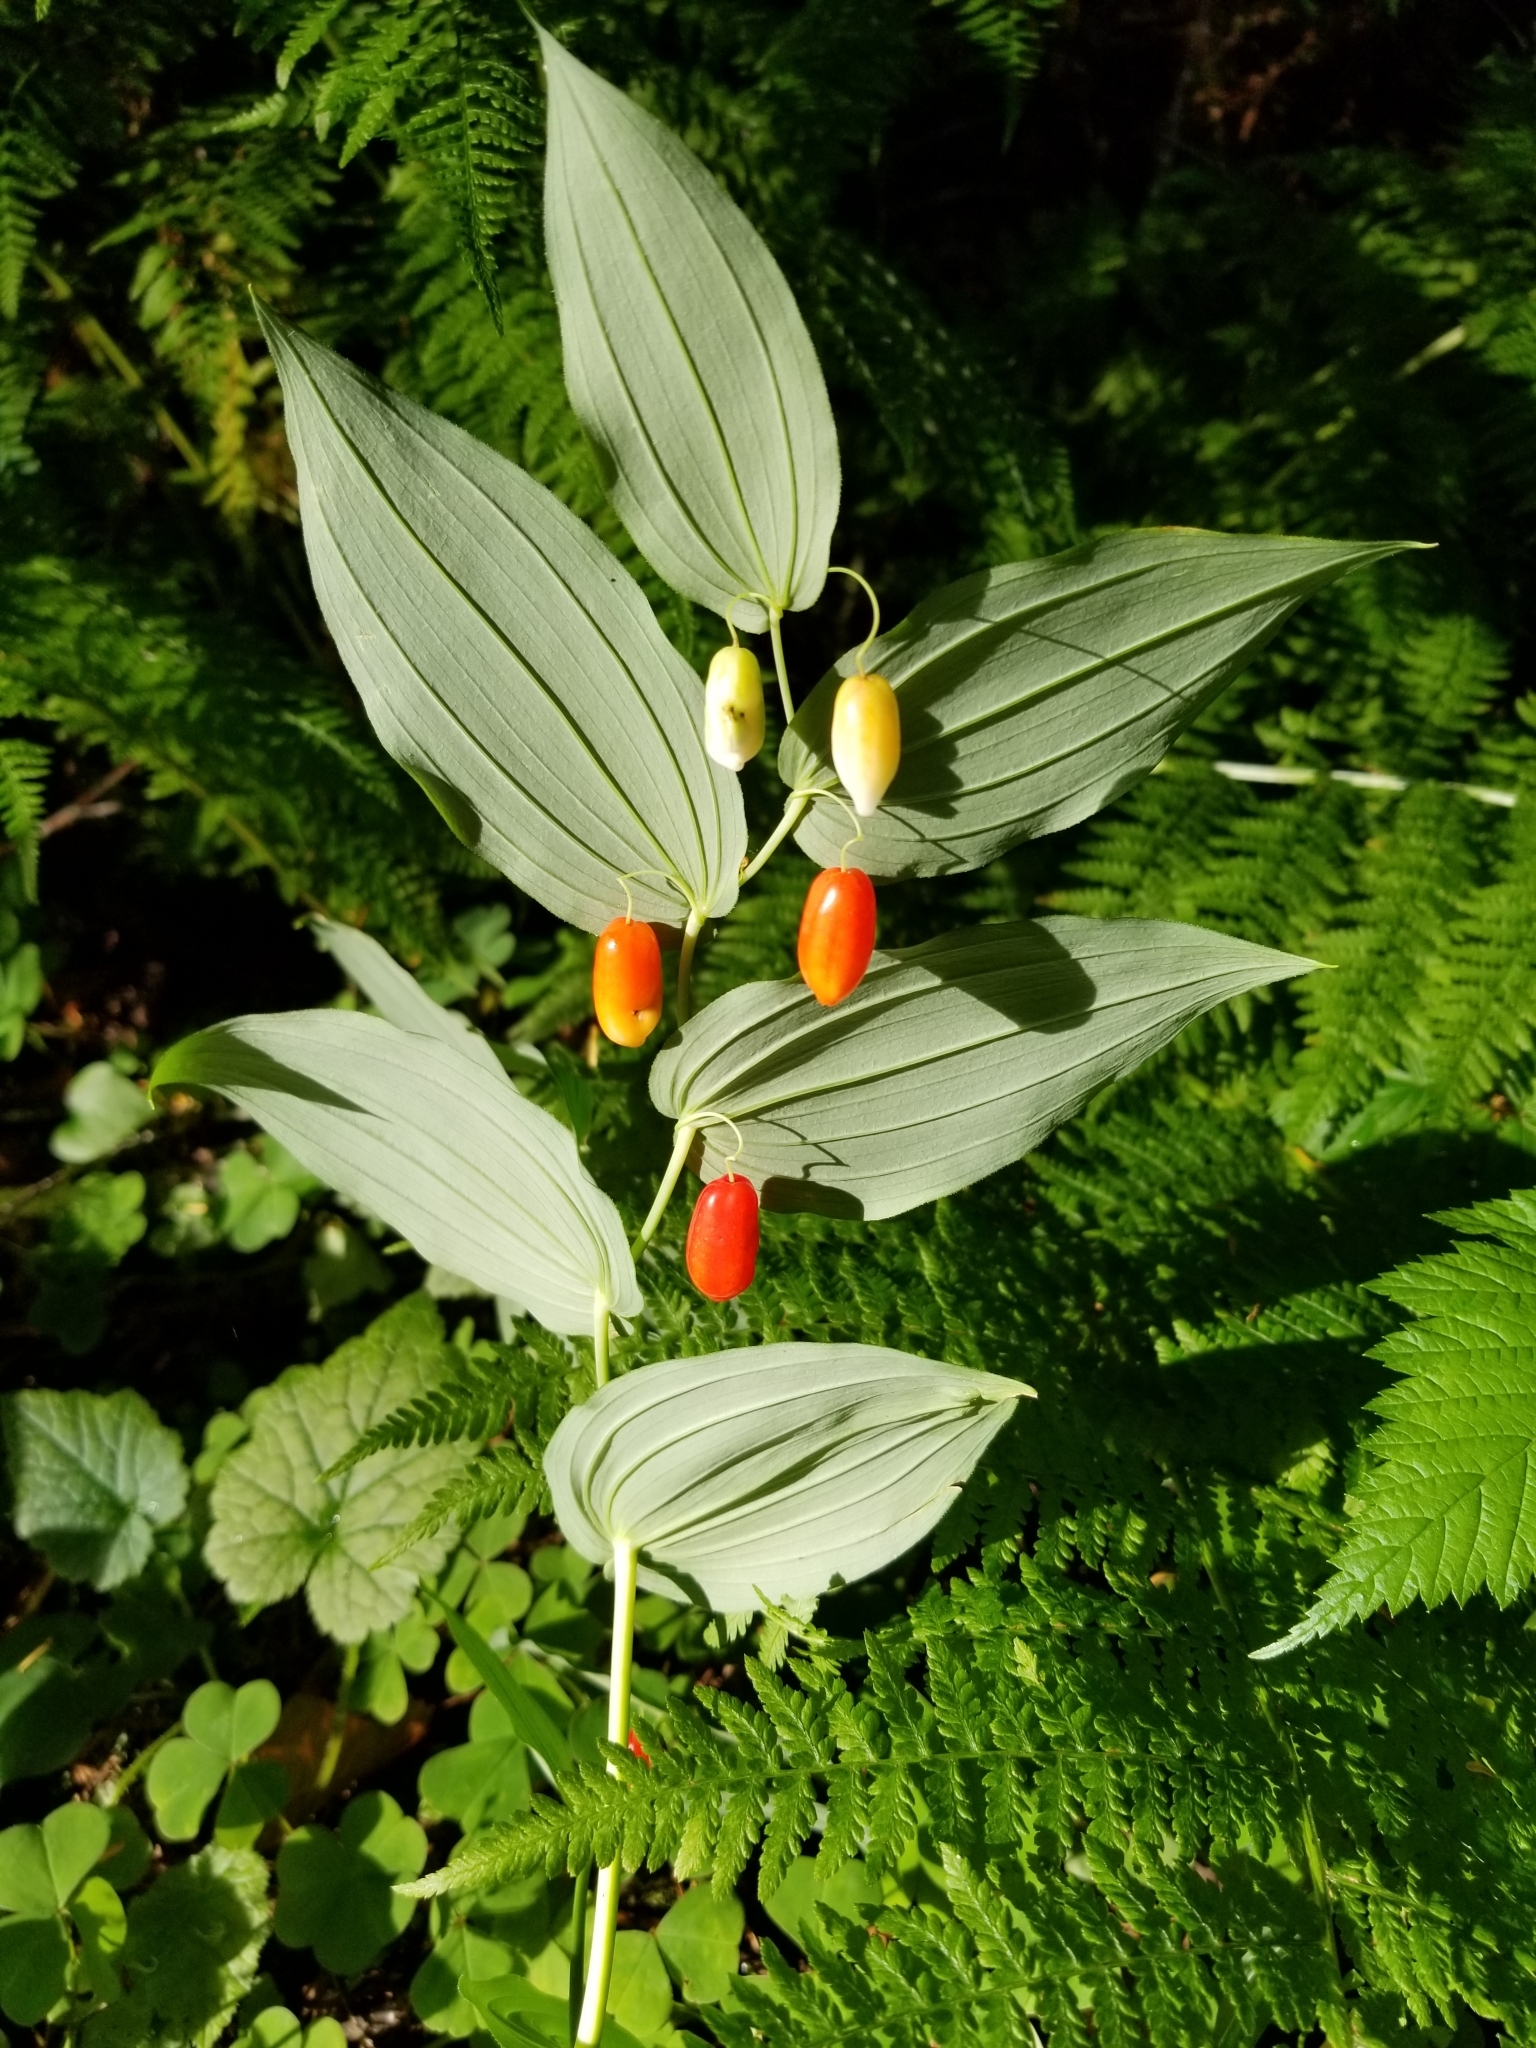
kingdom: Plantae
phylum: Tracheophyta
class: Liliopsida
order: Liliales
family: Liliaceae
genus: Streptopus
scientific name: Streptopus amplexifolius
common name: Clasp twisted stalk
